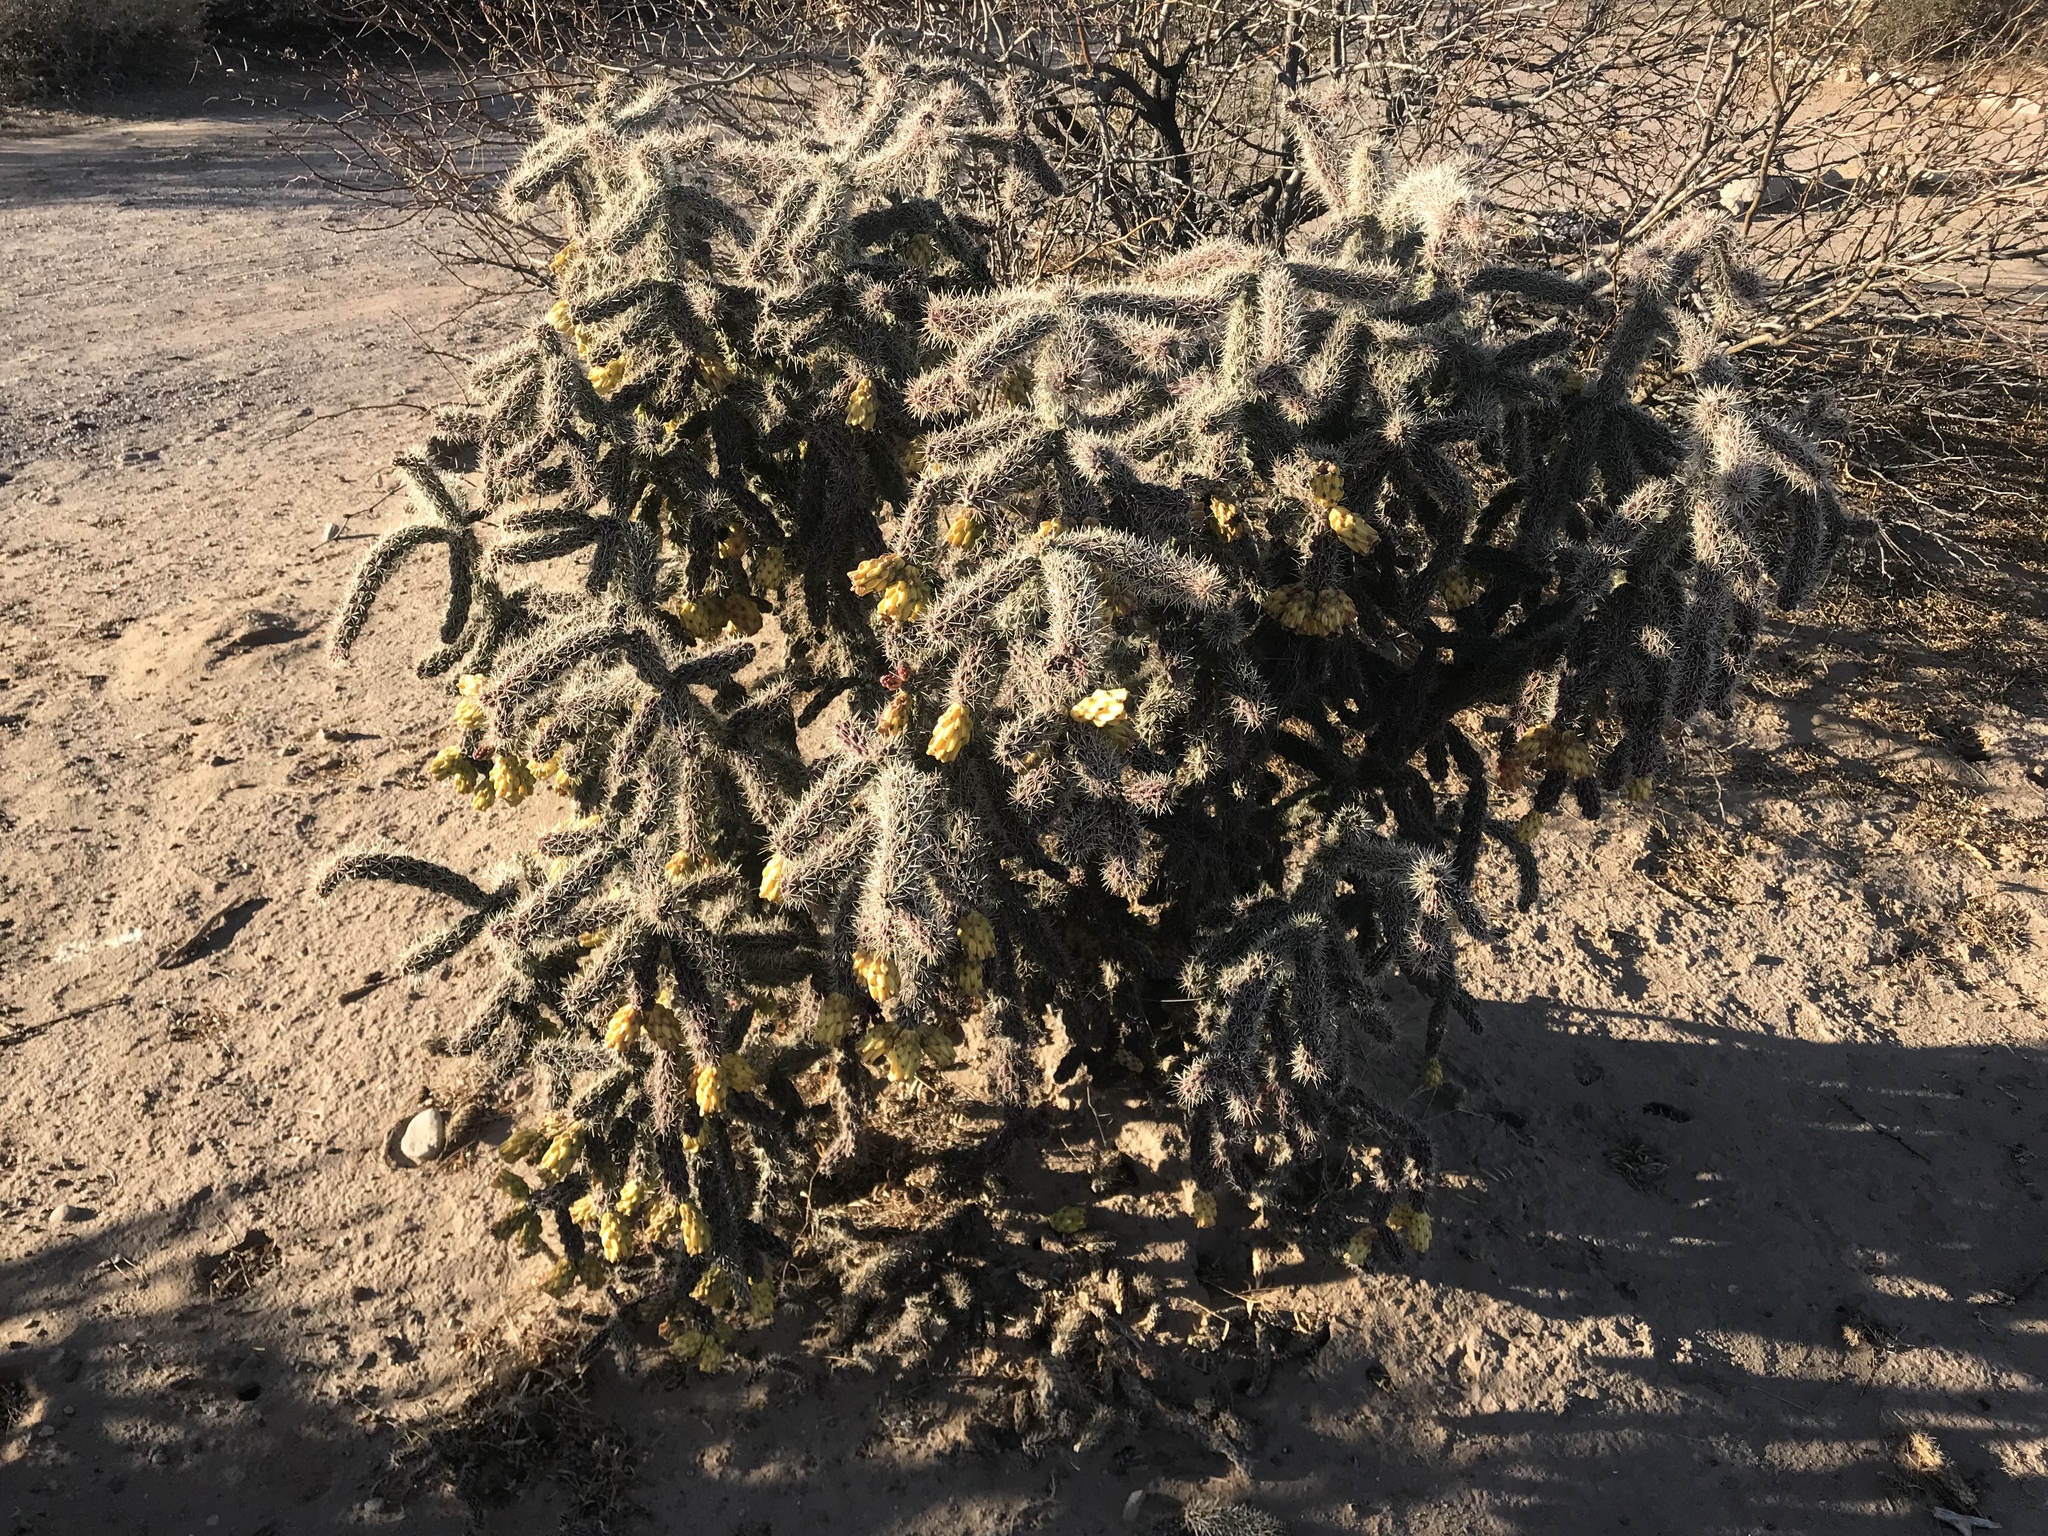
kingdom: Plantae
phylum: Tracheophyta
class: Magnoliopsida
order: Caryophyllales
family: Cactaceae
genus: Cylindropuntia
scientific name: Cylindropuntia imbricata
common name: Candelabrum cactus
